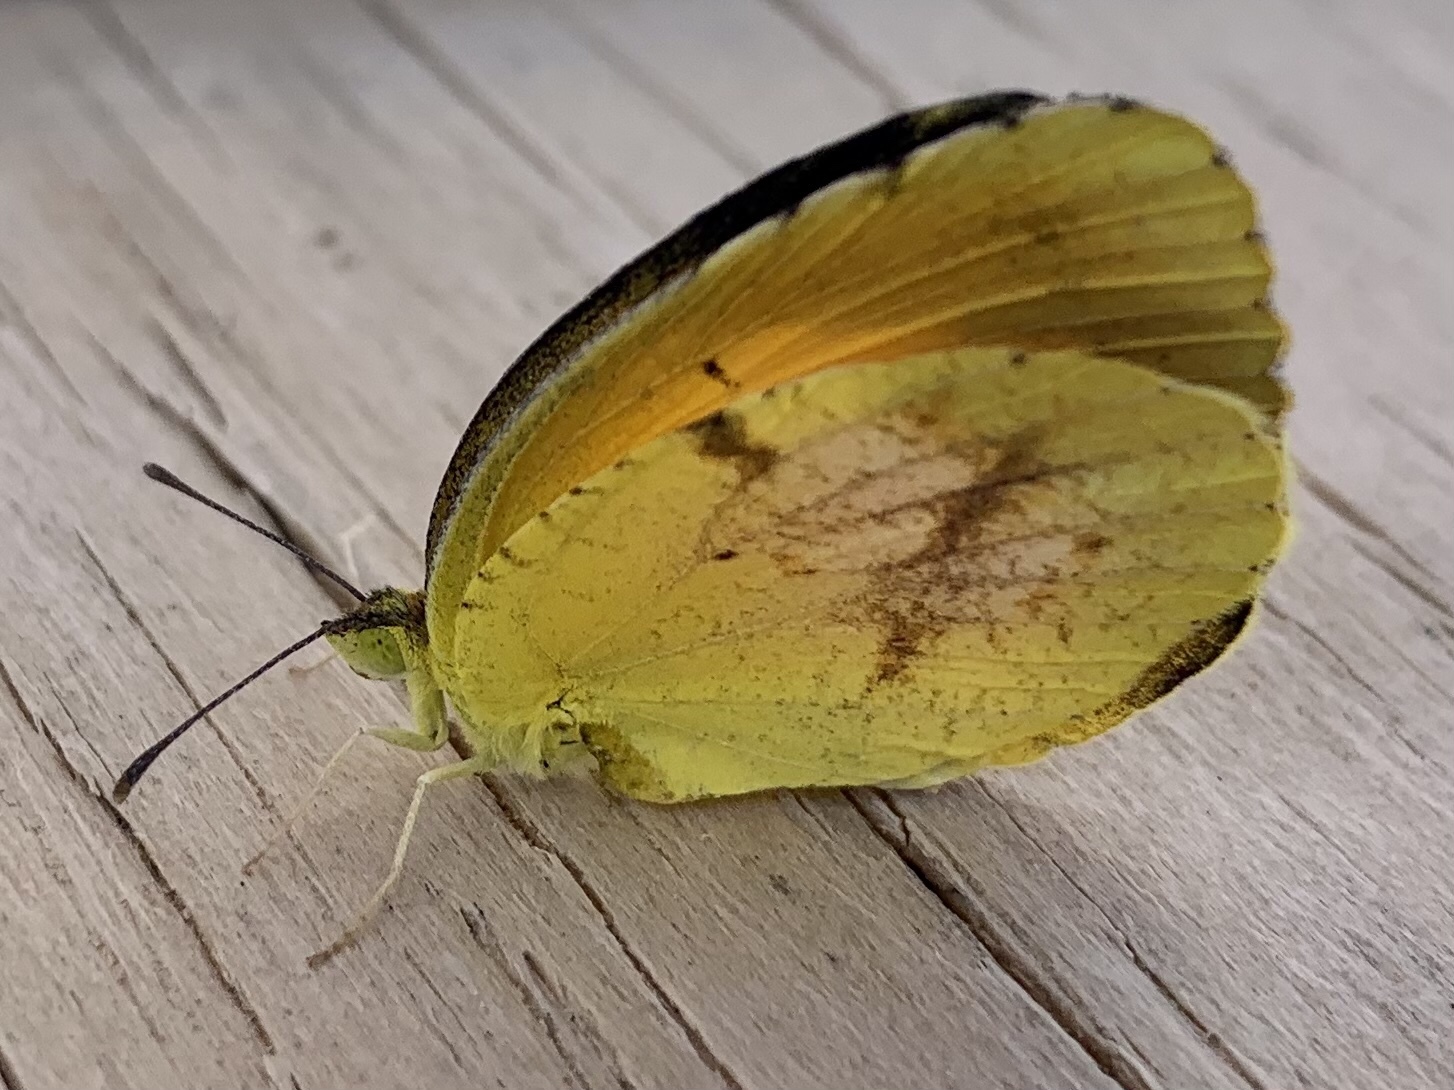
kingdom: Animalia
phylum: Arthropoda
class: Insecta
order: Lepidoptera
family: Pieridae
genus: Abaeis
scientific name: Abaeis nicippe
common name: Sleepy orange
